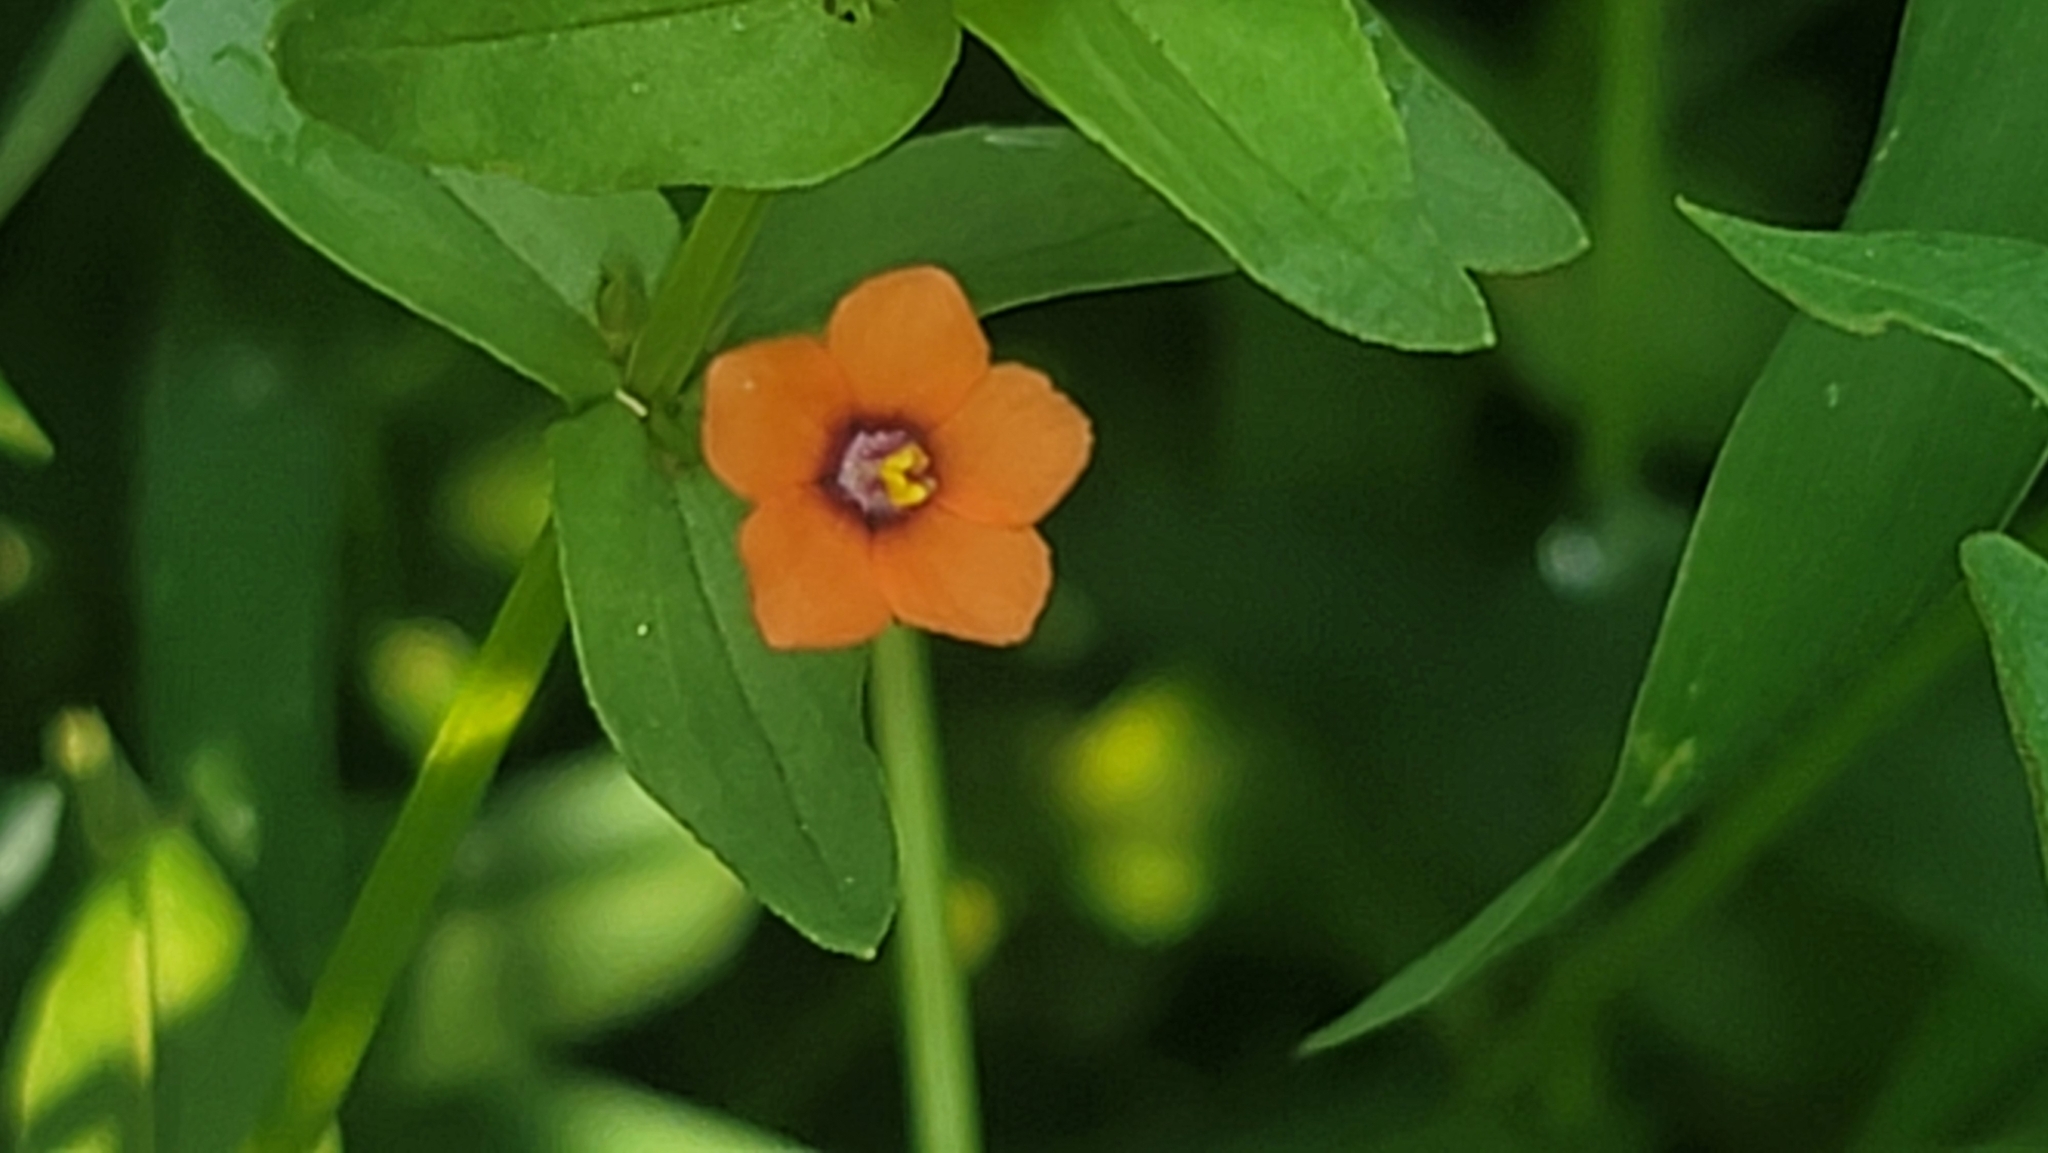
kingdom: Plantae
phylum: Tracheophyta
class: Magnoliopsida
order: Ericales
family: Primulaceae
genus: Lysimachia
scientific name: Lysimachia arvensis
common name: Scarlet pimpernel
